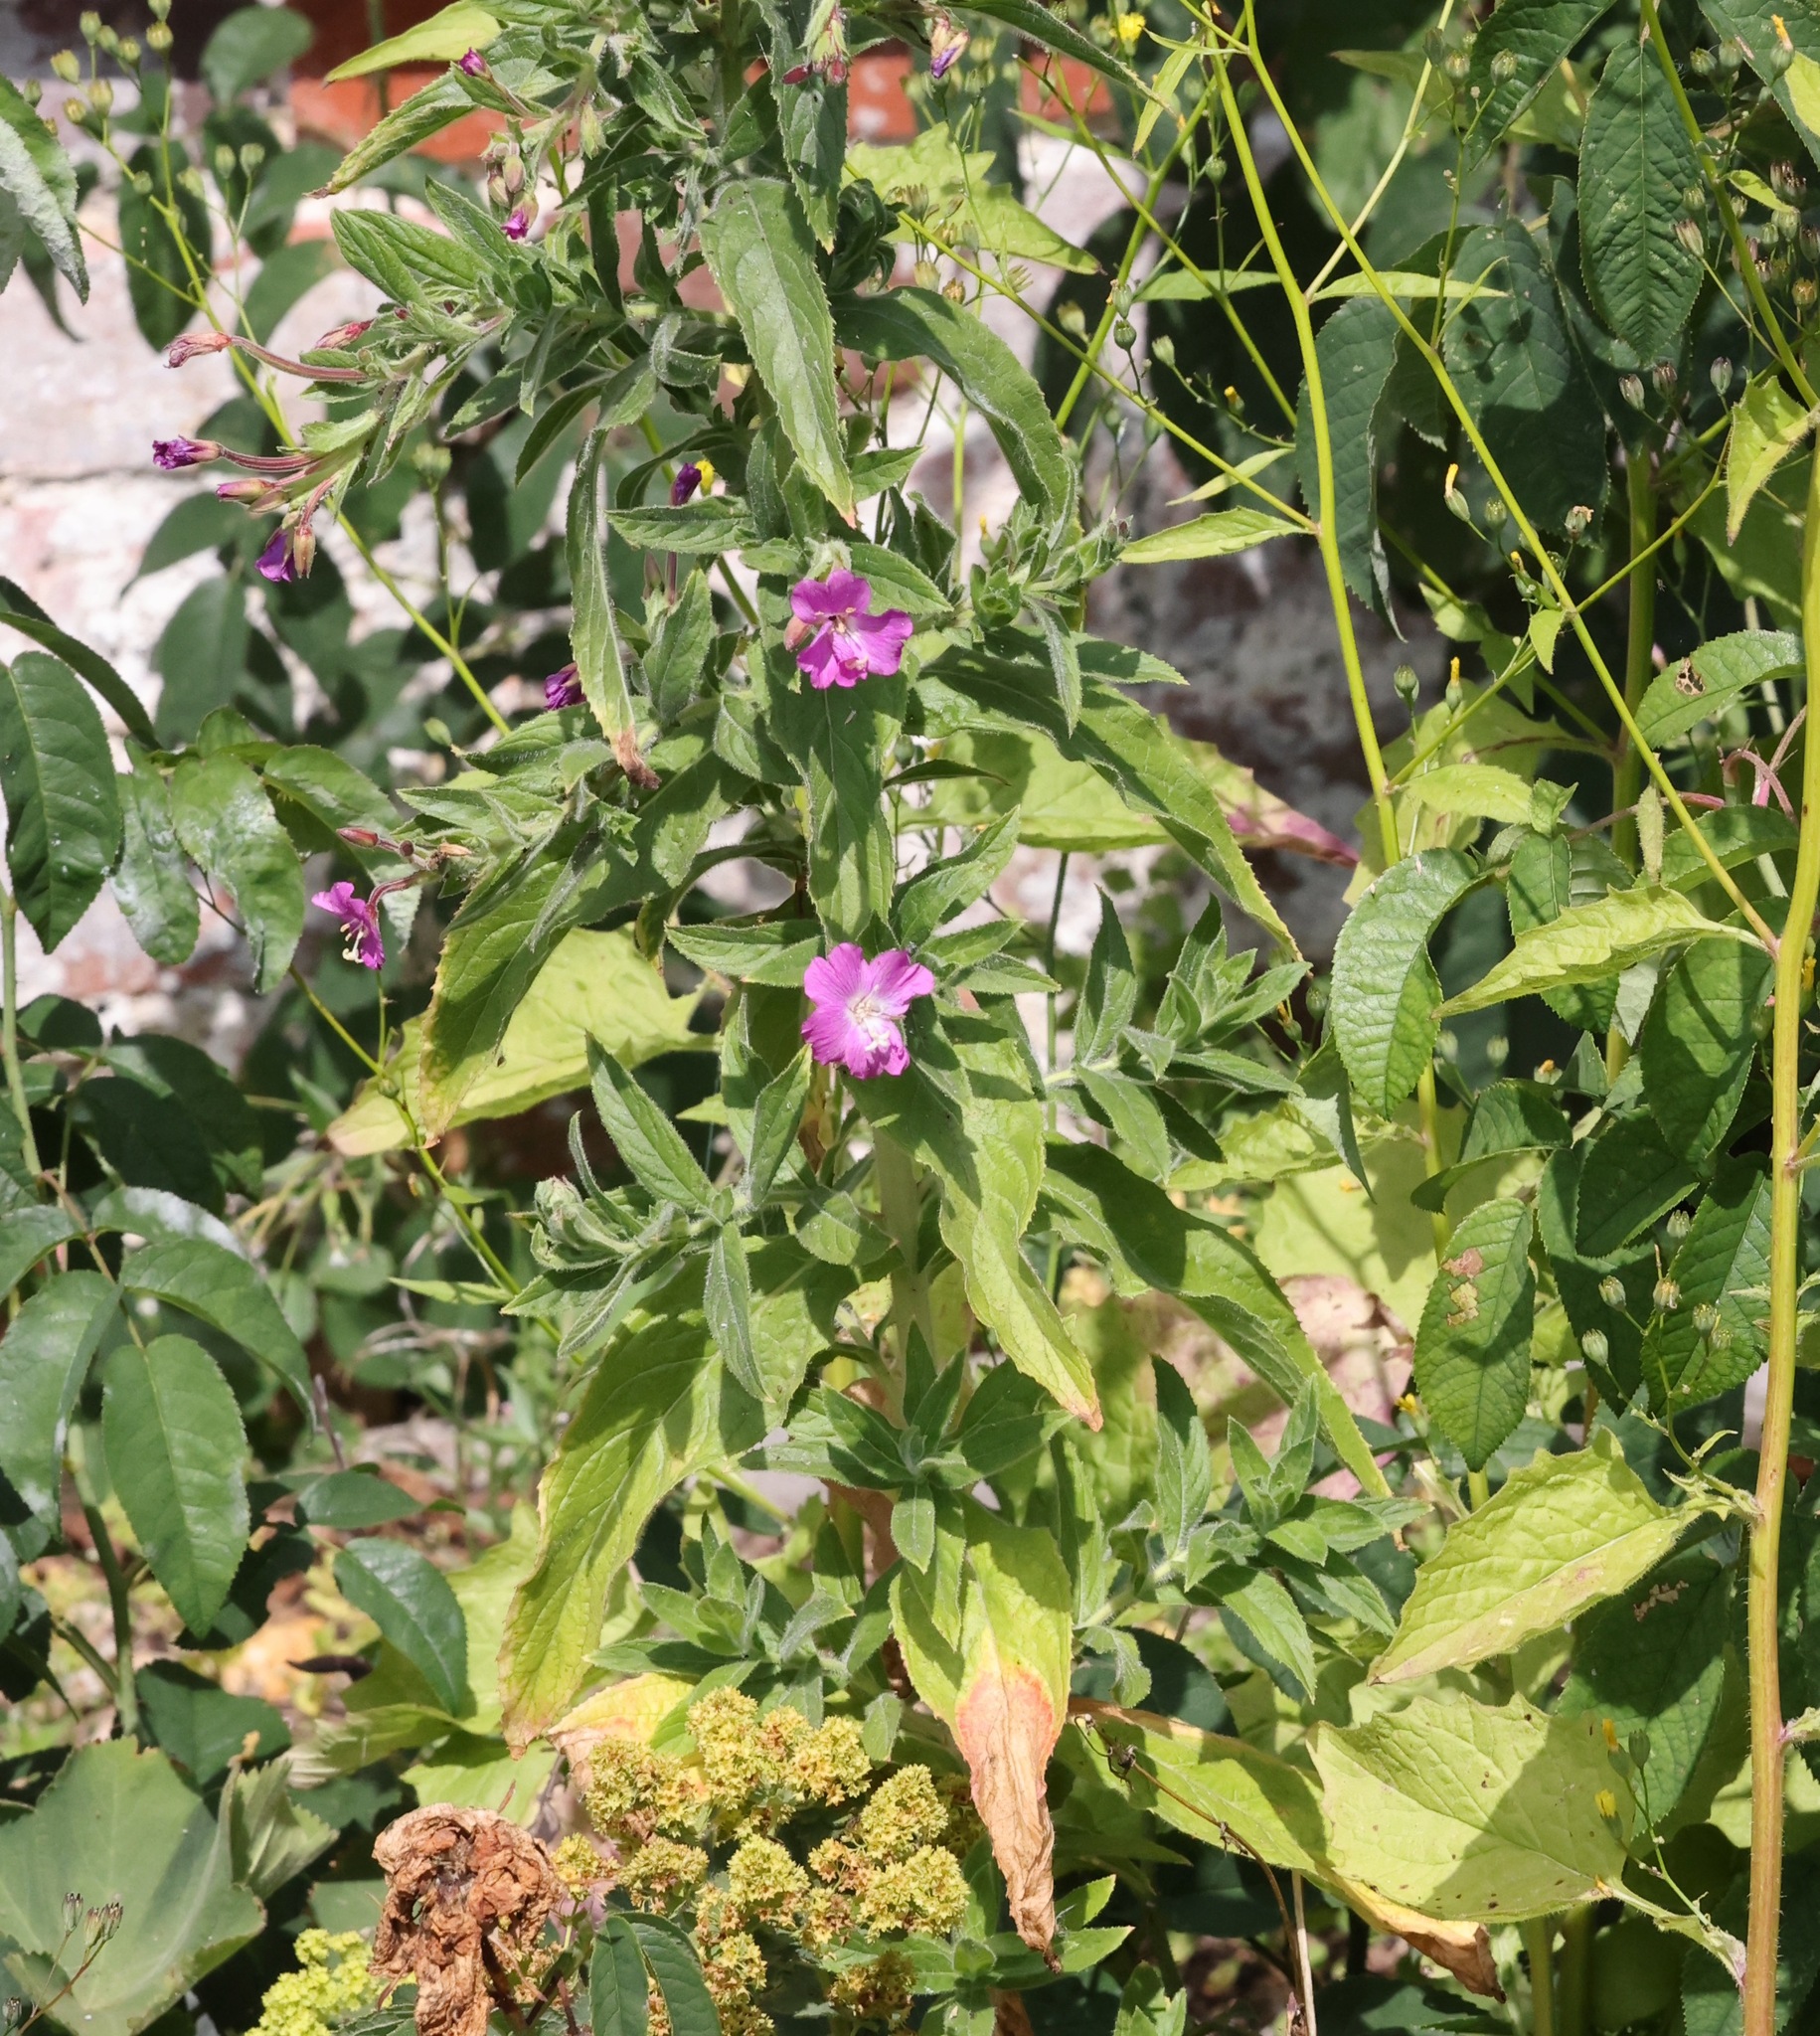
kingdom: Plantae
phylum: Tracheophyta
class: Magnoliopsida
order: Myrtales
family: Onagraceae
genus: Epilobium
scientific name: Epilobium hirsutum
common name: Great willowherb
